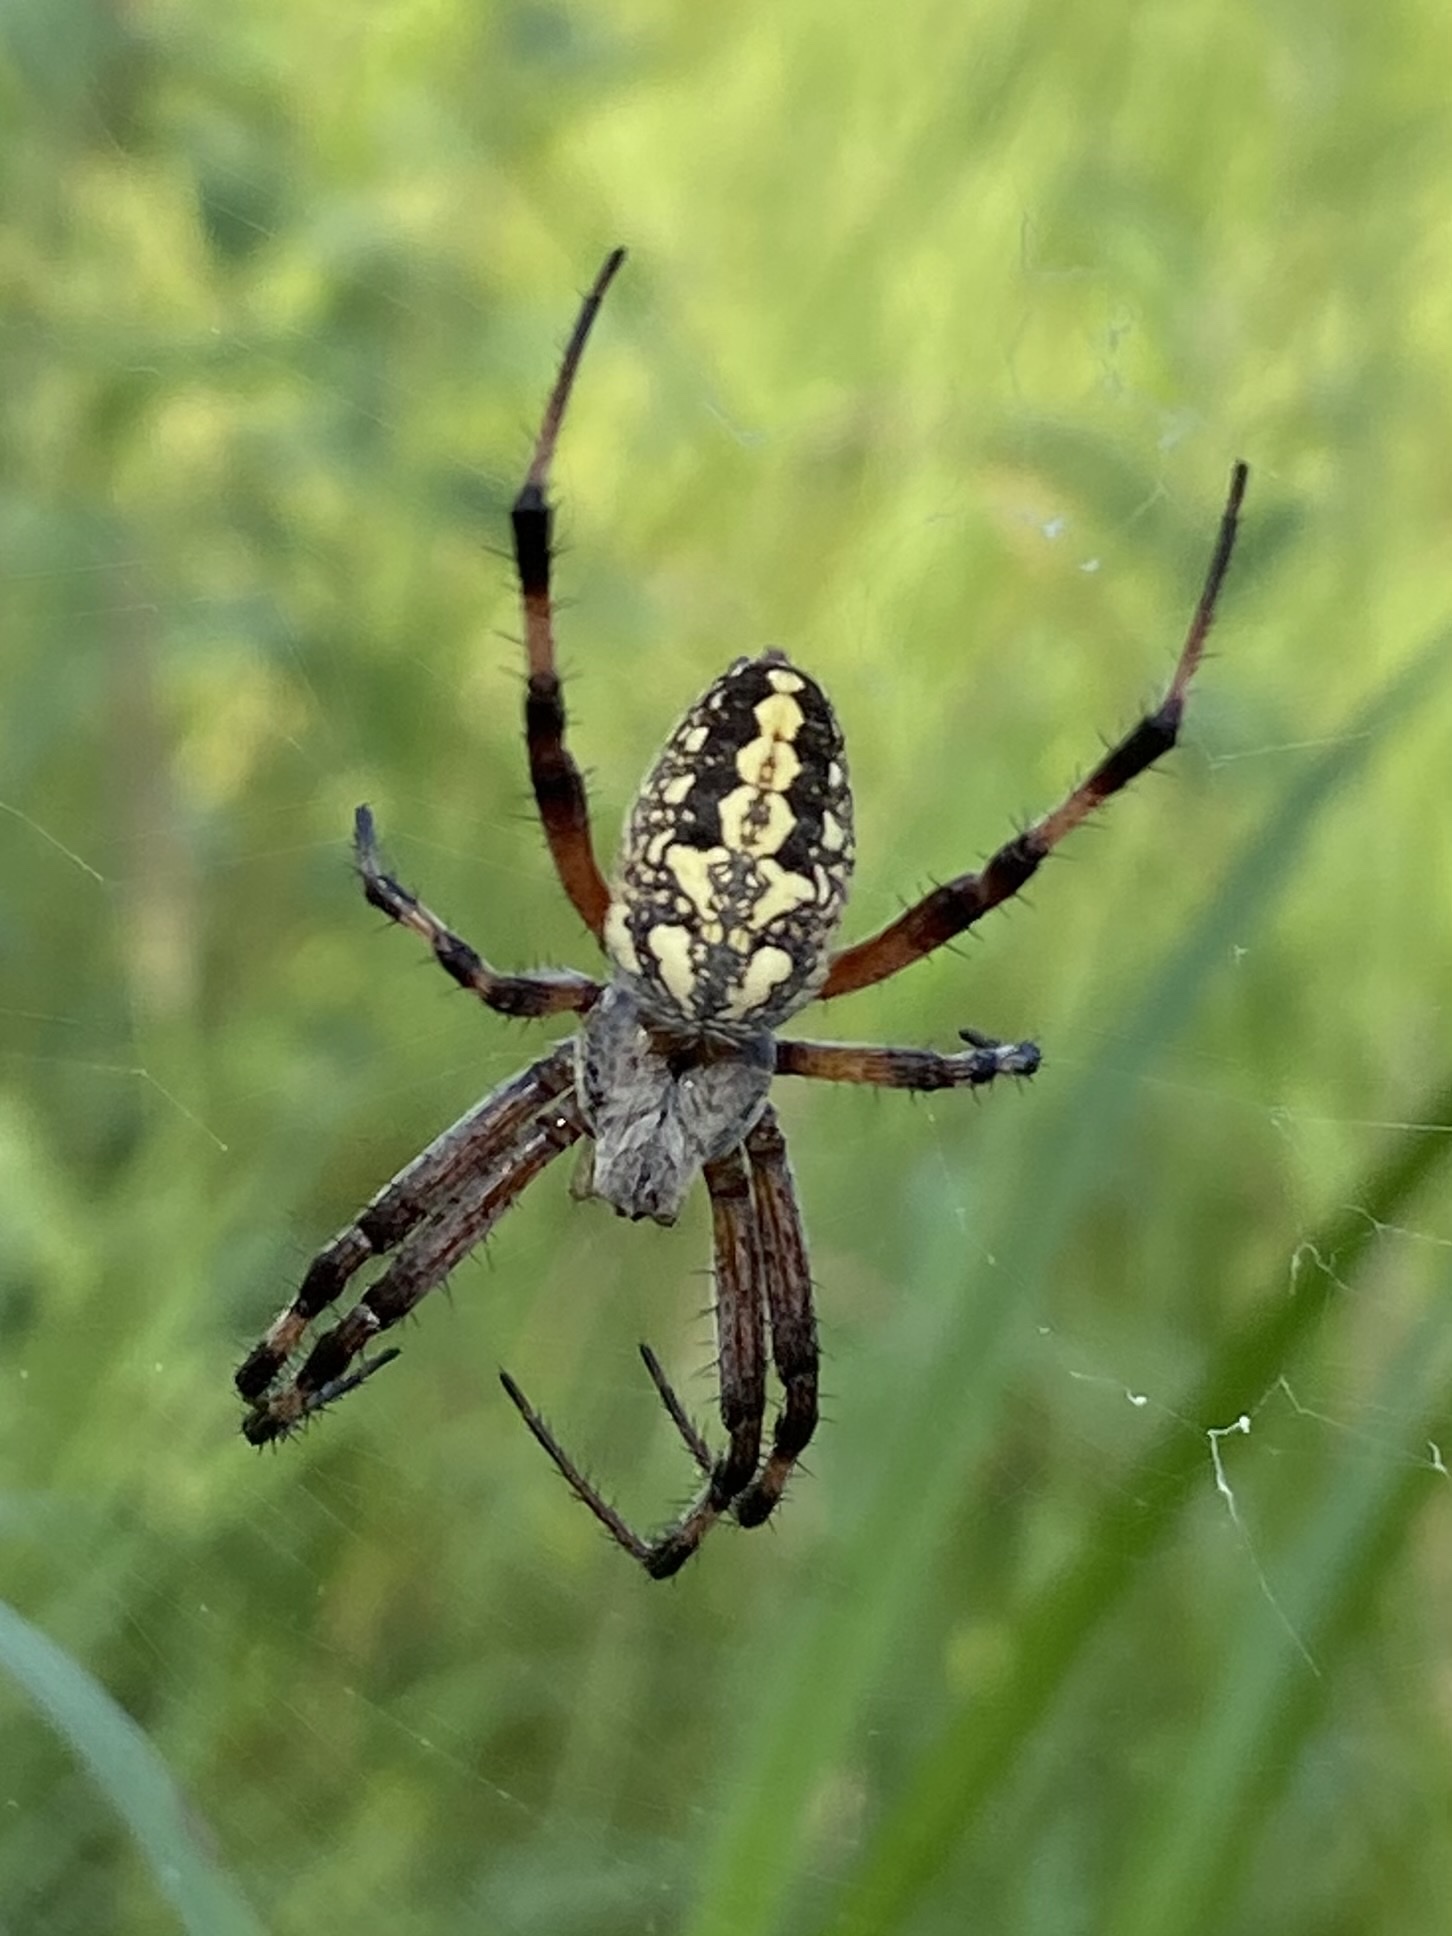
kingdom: Animalia
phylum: Arthropoda
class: Arachnida
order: Araneae
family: Araneidae
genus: Neoscona
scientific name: Neoscona oaxacensis
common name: Orb weavers
